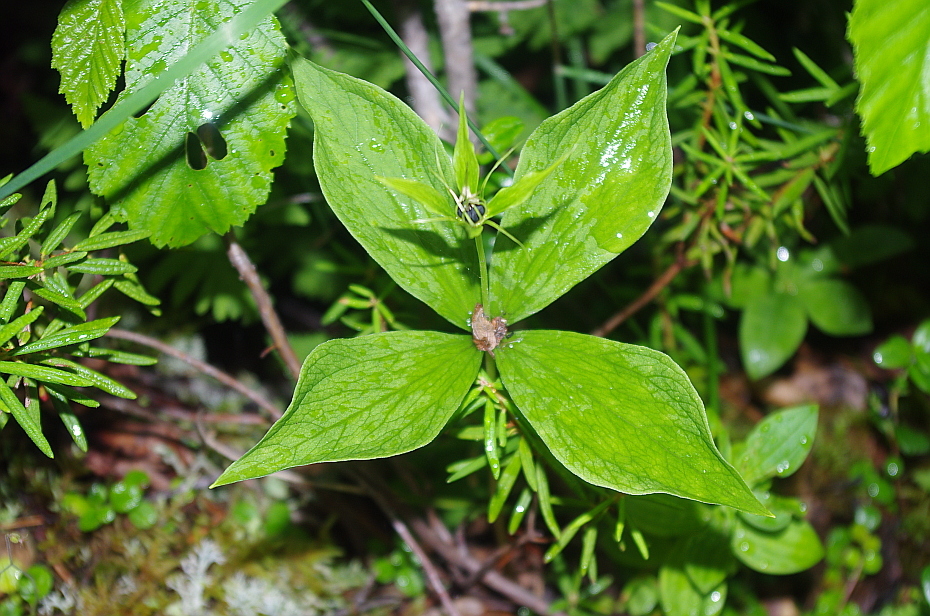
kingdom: Plantae
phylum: Tracheophyta
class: Liliopsida
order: Liliales
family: Melanthiaceae
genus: Paris
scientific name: Paris quadrifolia
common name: Herb-paris
